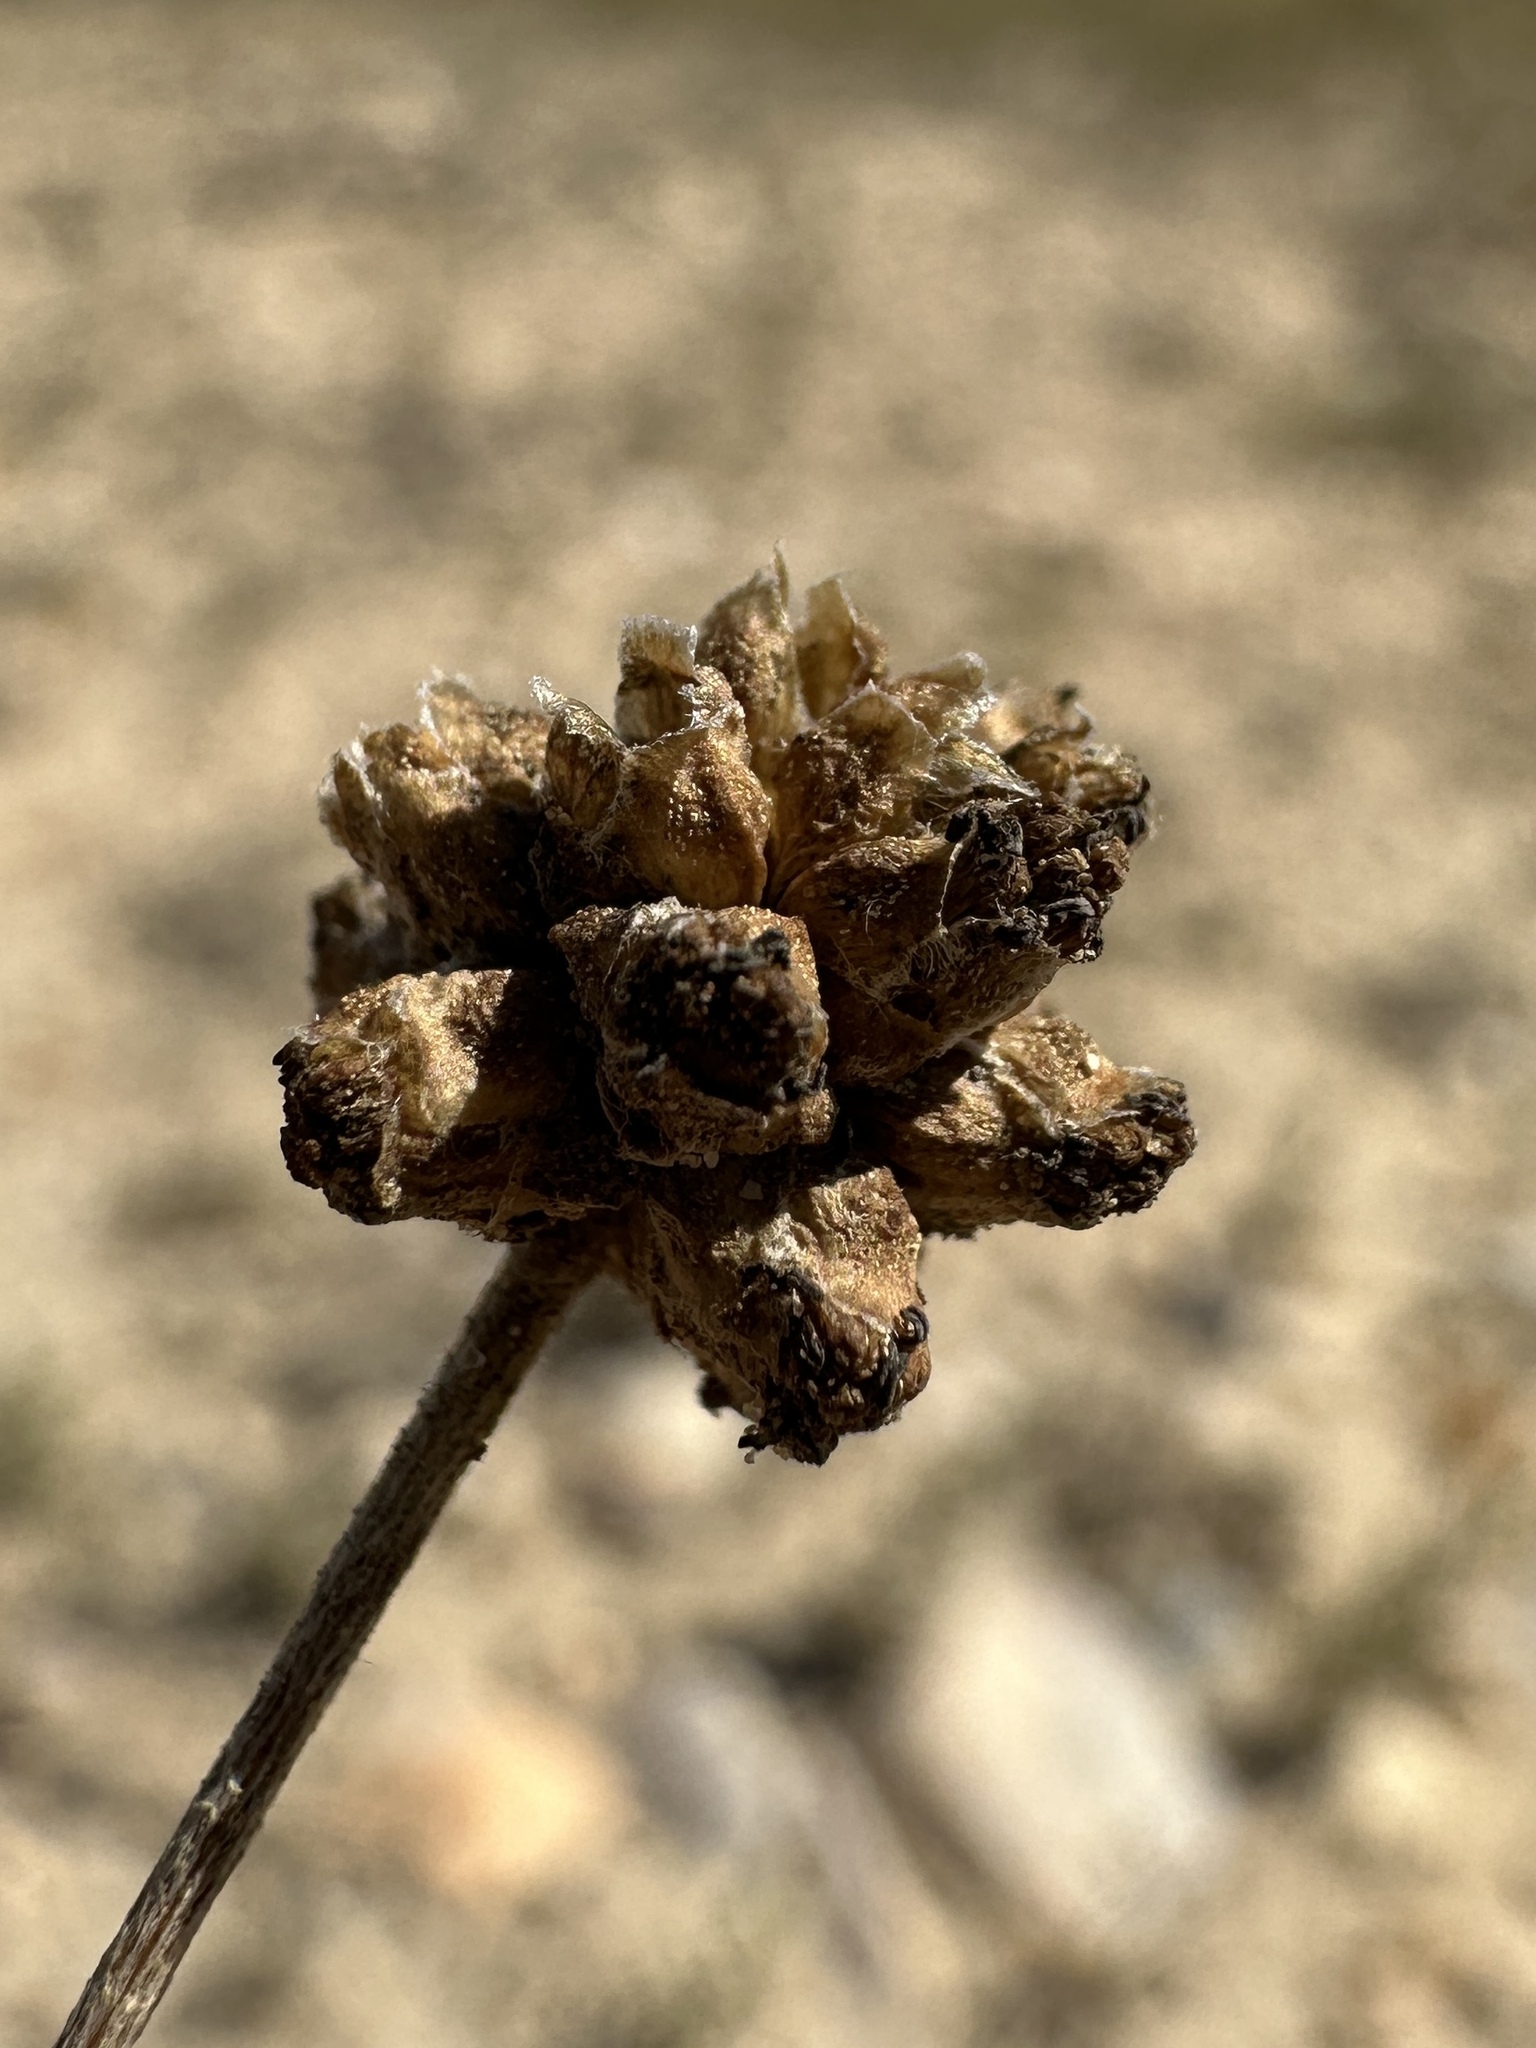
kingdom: Plantae
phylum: Tracheophyta
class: Magnoliopsida
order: Asterales
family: Asteraceae
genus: Artemisia
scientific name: Artemisia capitata
